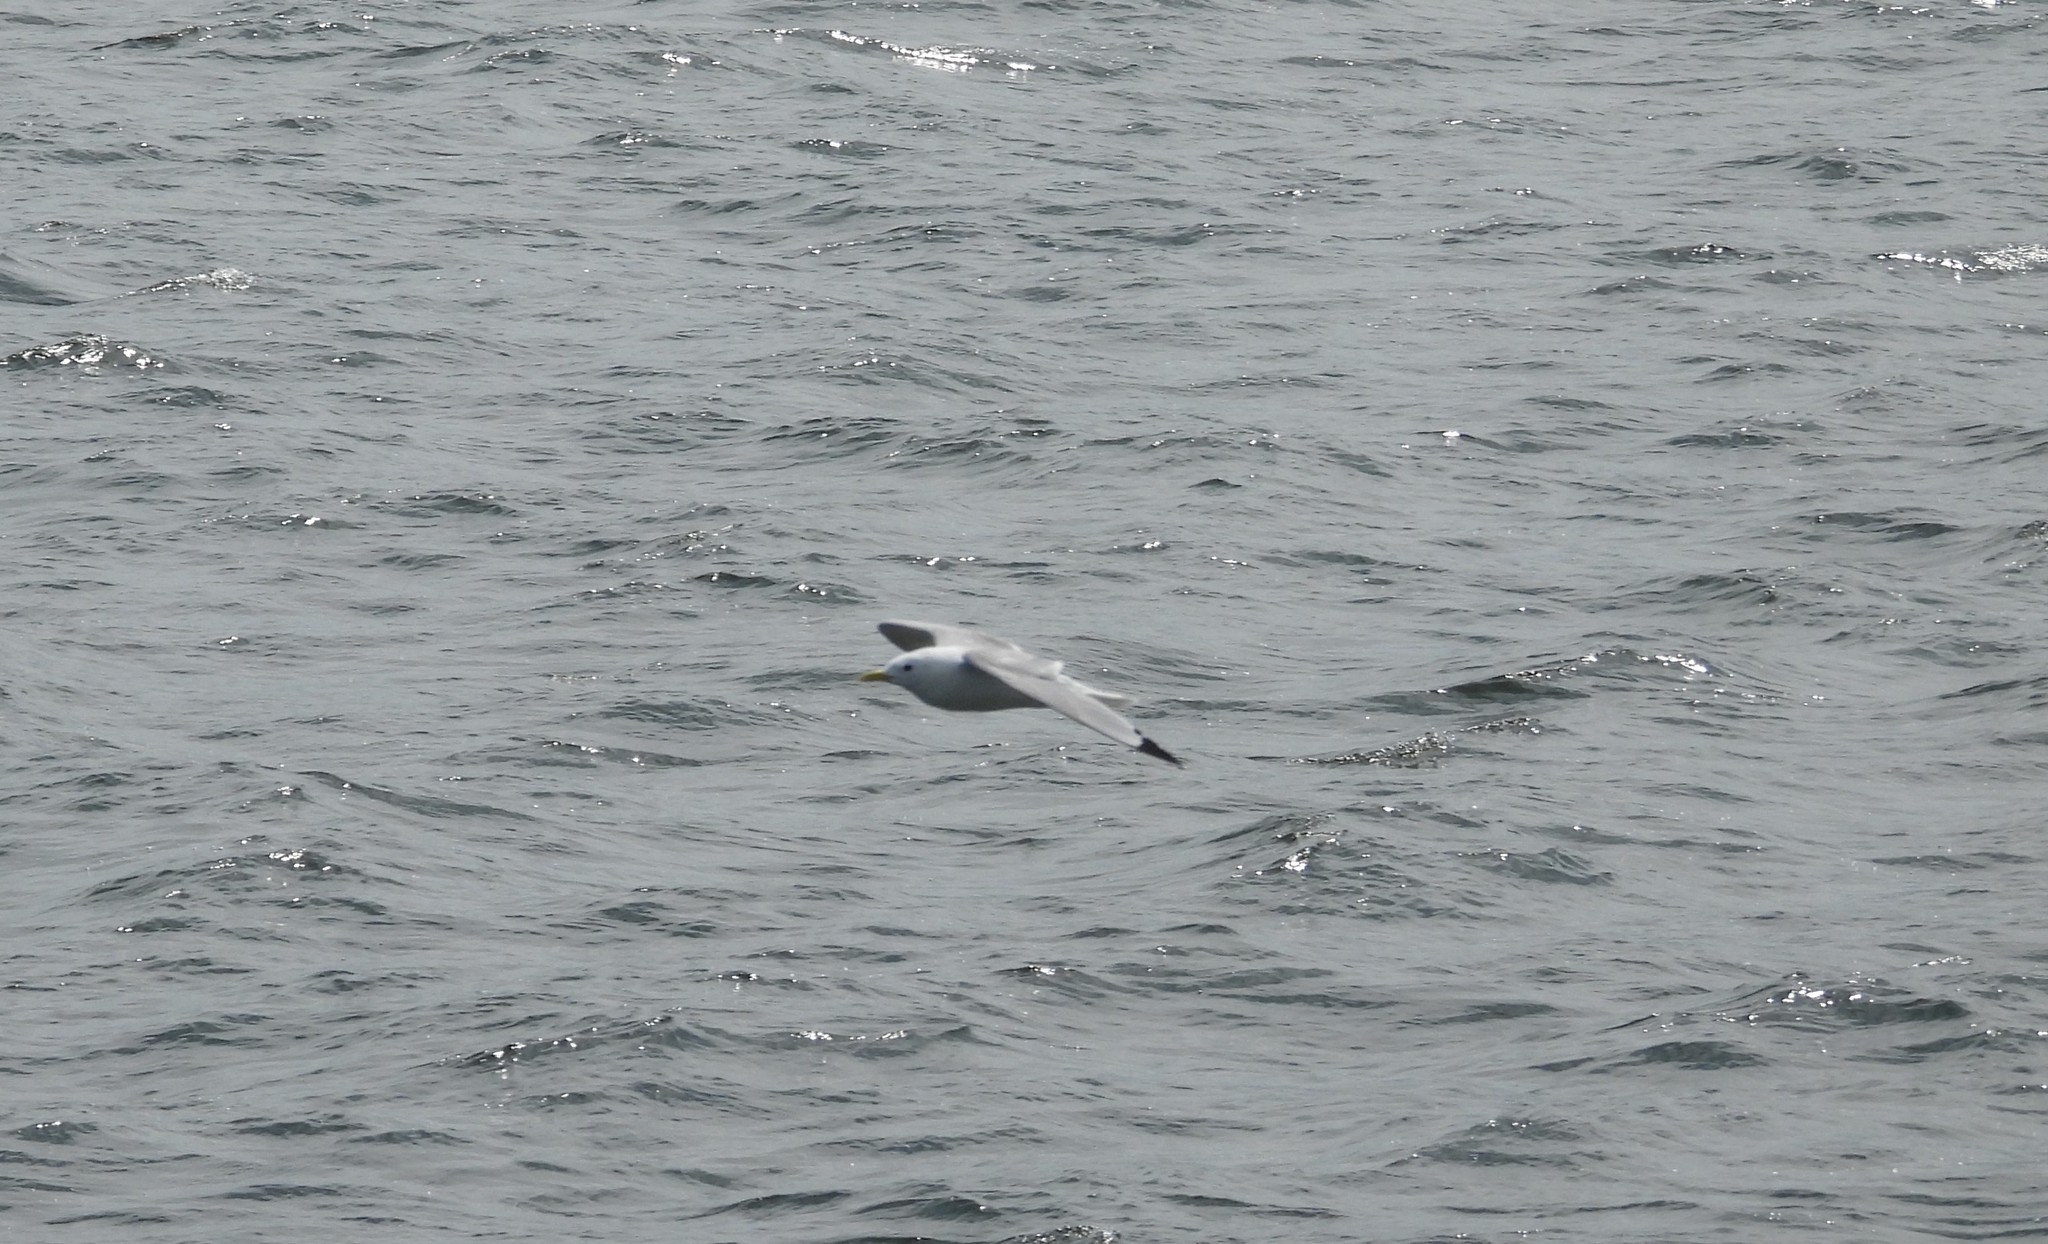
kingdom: Animalia
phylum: Chordata
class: Aves
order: Charadriiformes
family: Laridae
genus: Rissa
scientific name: Rissa tridactyla
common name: Black-legged kittiwake
